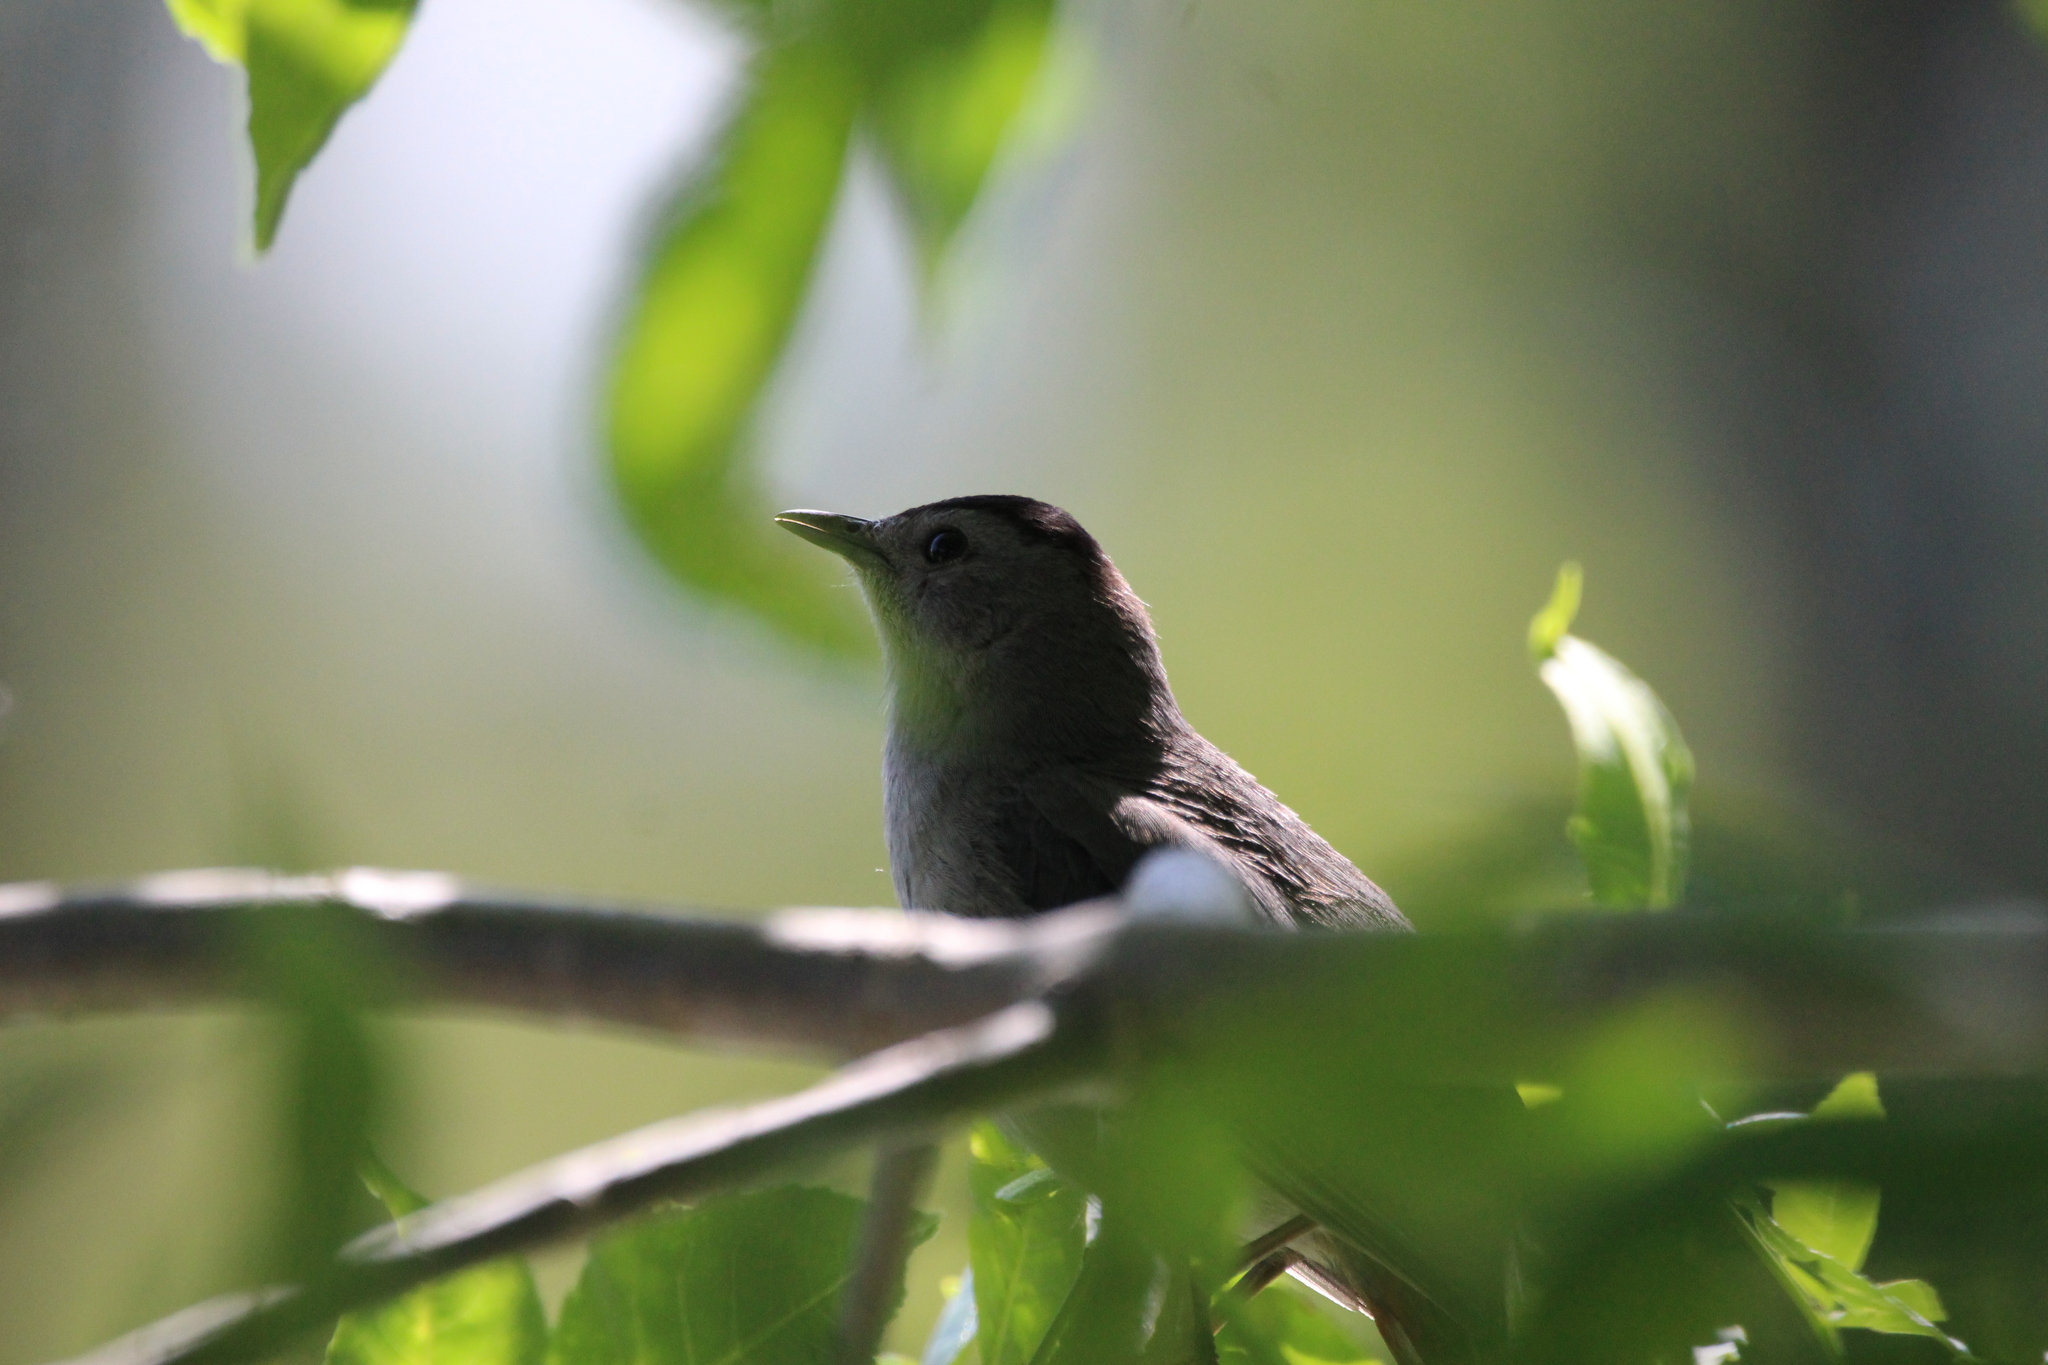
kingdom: Animalia
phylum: Chordata
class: Aves
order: Passeriformes
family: Mimidae
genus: Dumetella
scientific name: Dumetella carolinensis
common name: Gray catbird
